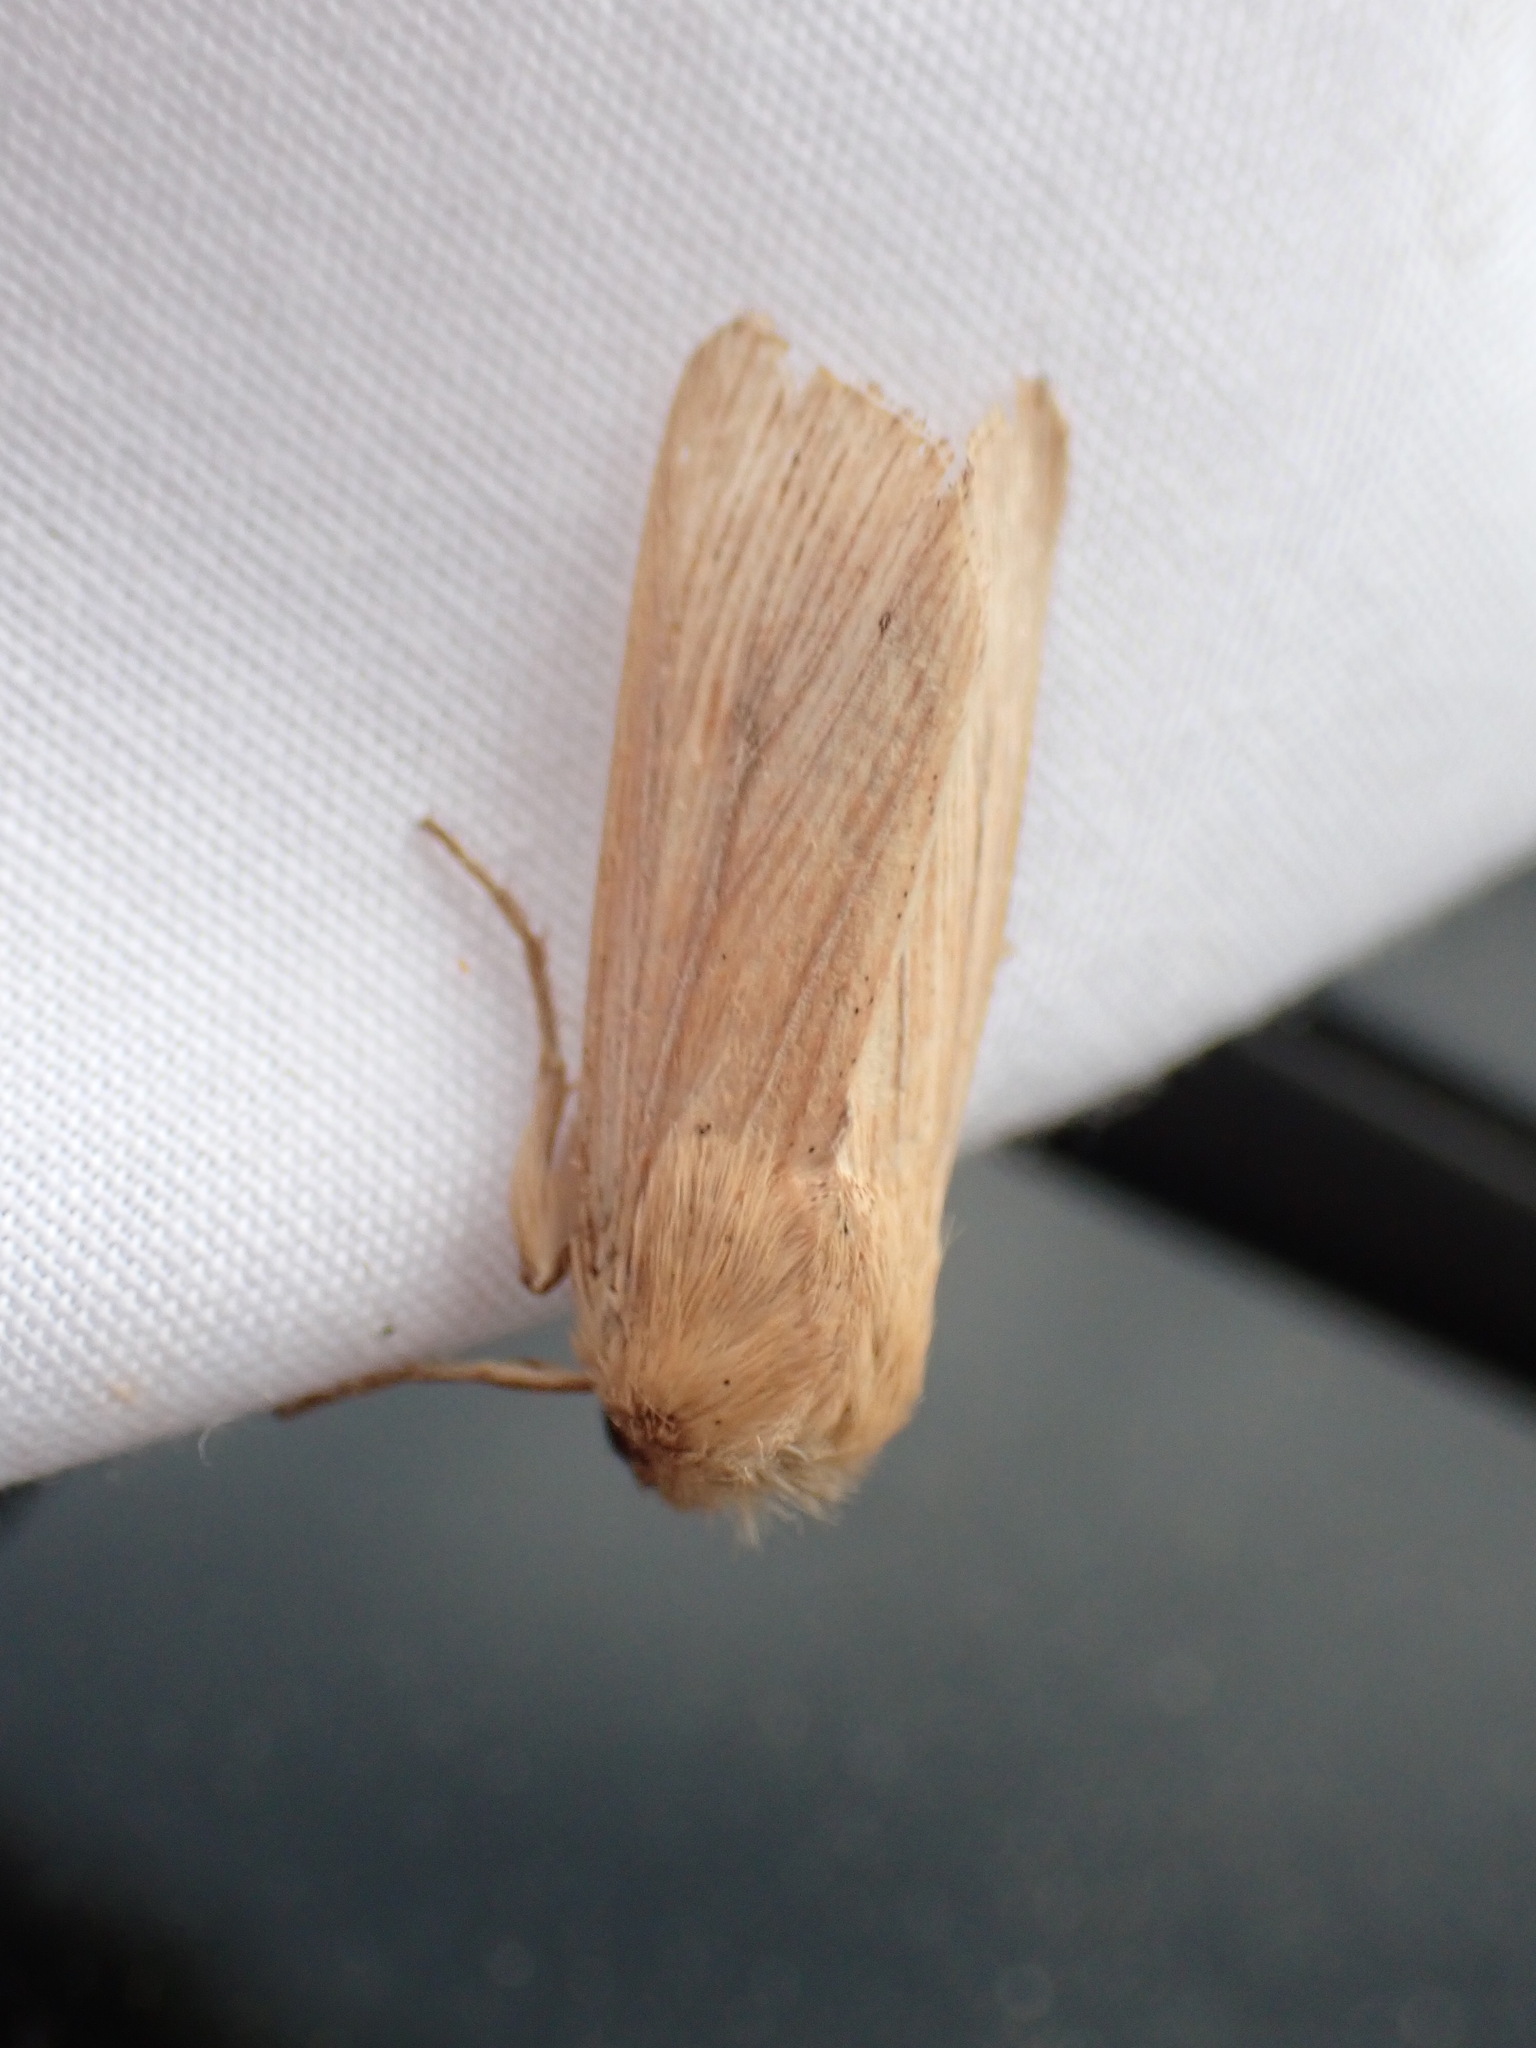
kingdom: Animalia
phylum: Arthropoda
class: Insecta
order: Lepidoptera
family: Noctuidae
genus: Mythimna
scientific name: Mythimna oxygala
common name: Lesser wainscot
